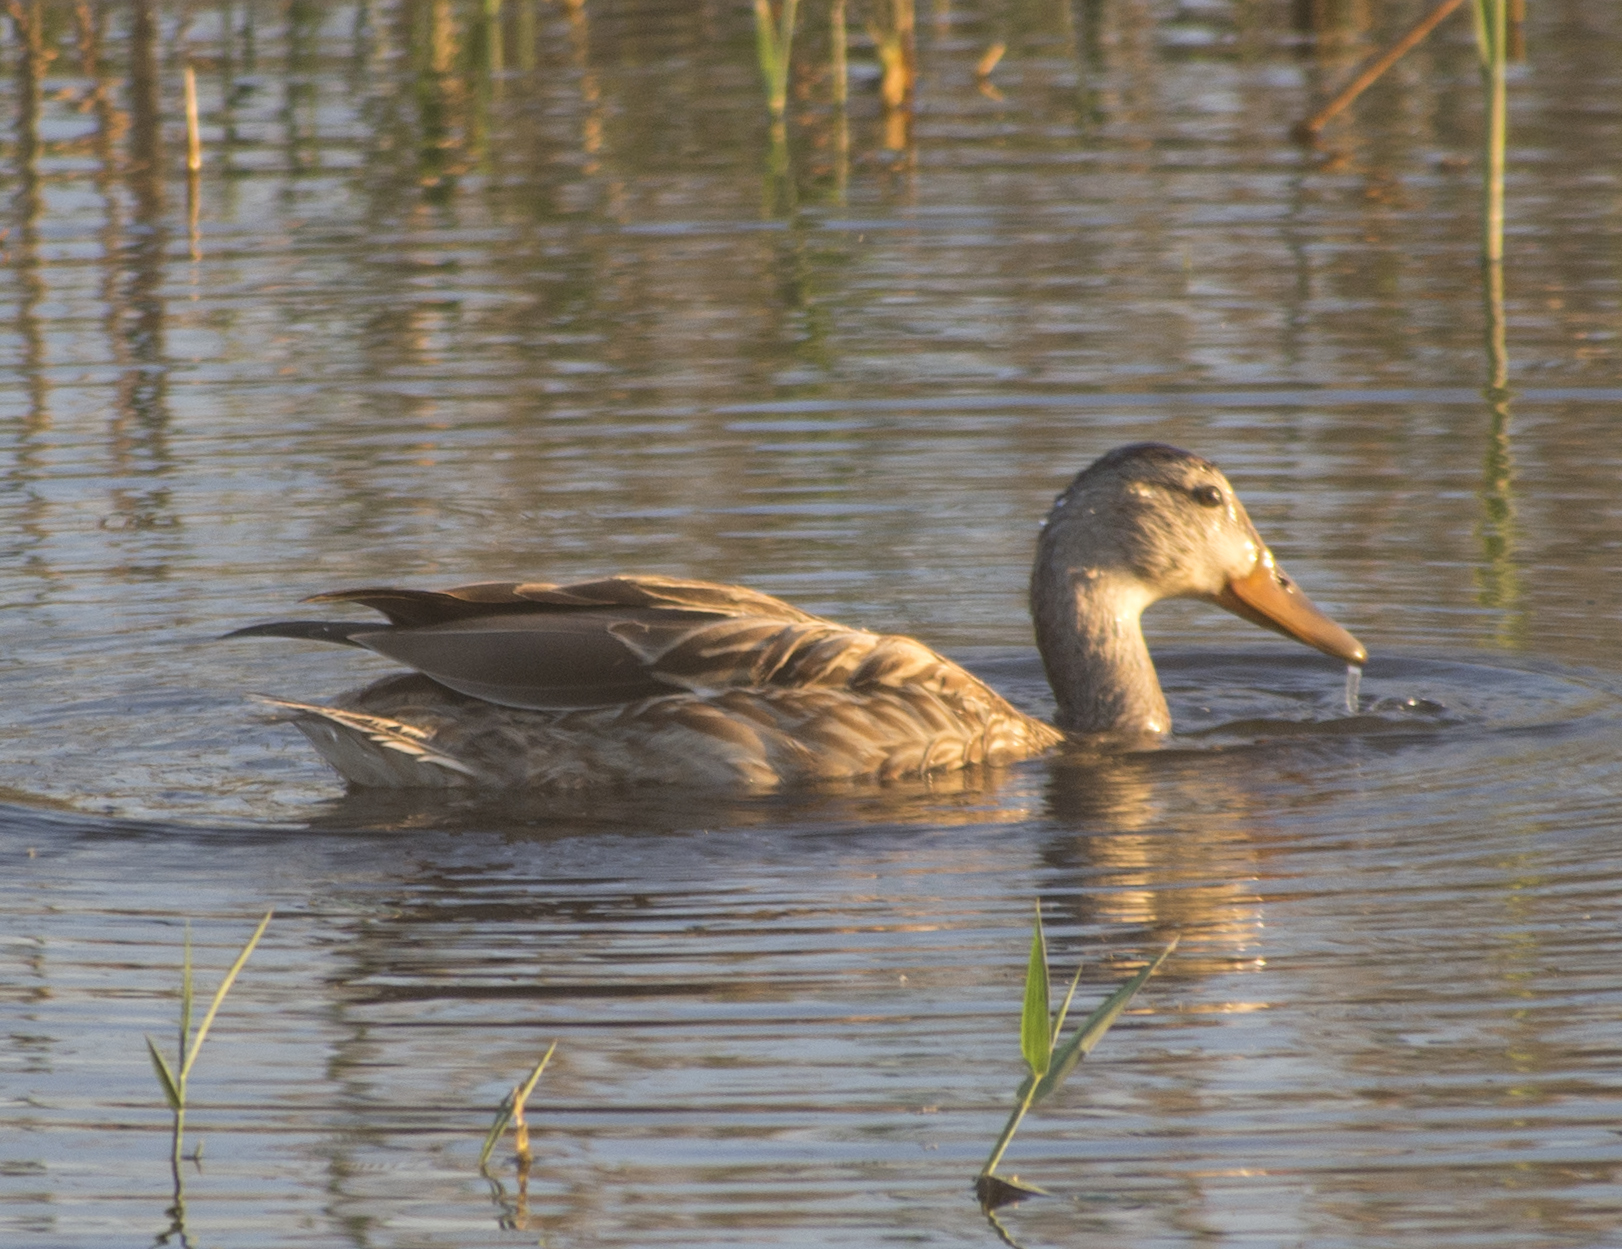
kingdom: Animalia
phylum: Chordata
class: Aves
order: Anseriformes
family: Anatidae
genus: Anas
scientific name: Anas platyrhynchos
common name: Mallard
